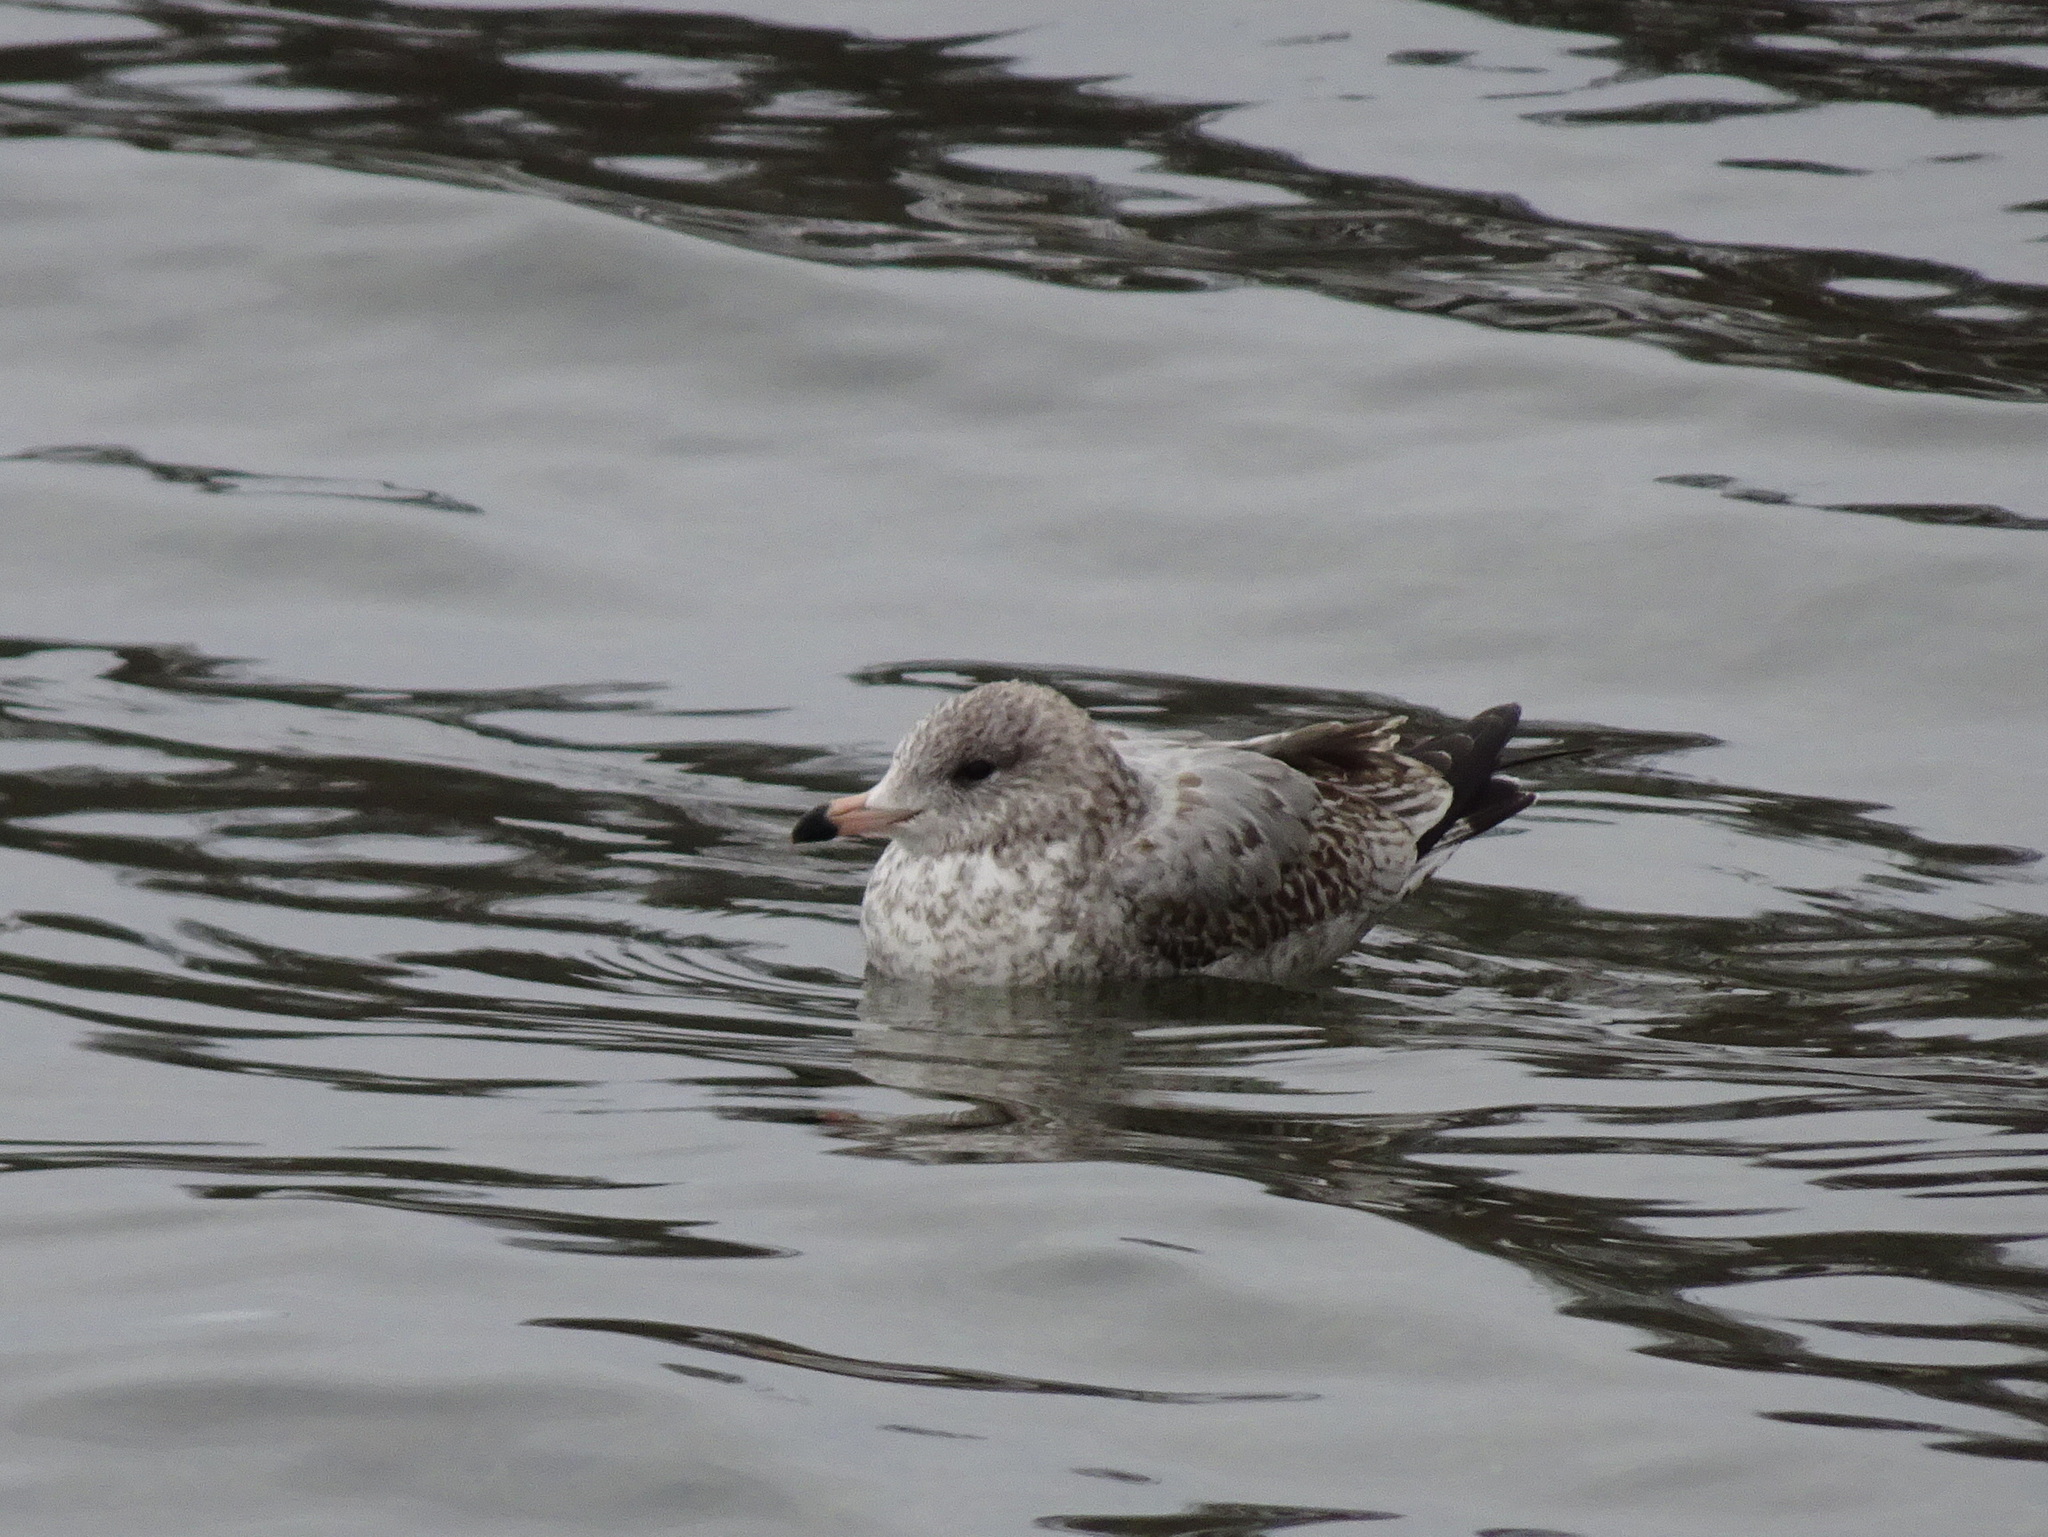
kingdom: Animalia
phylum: Chordata
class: Aves
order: Charadriiformes
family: Laridae
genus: Larus
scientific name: Larus delawarensis
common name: Ring-billed gull
